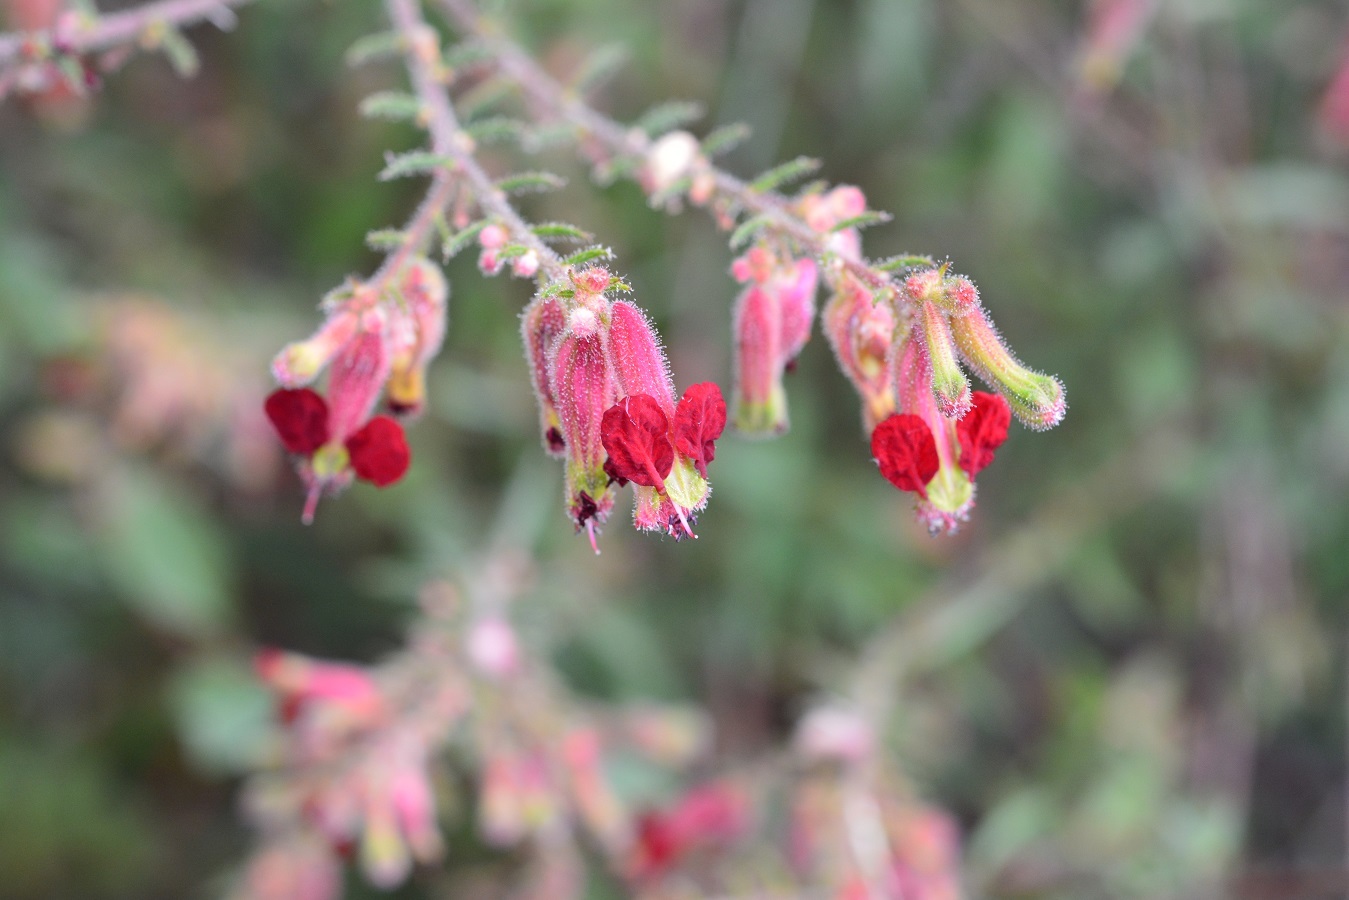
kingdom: Plantae
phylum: Tracheophyta
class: Magnoliopsida
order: Myrtales
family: Lythraceae
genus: Cuphea
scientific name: Cuphea hookeriana
